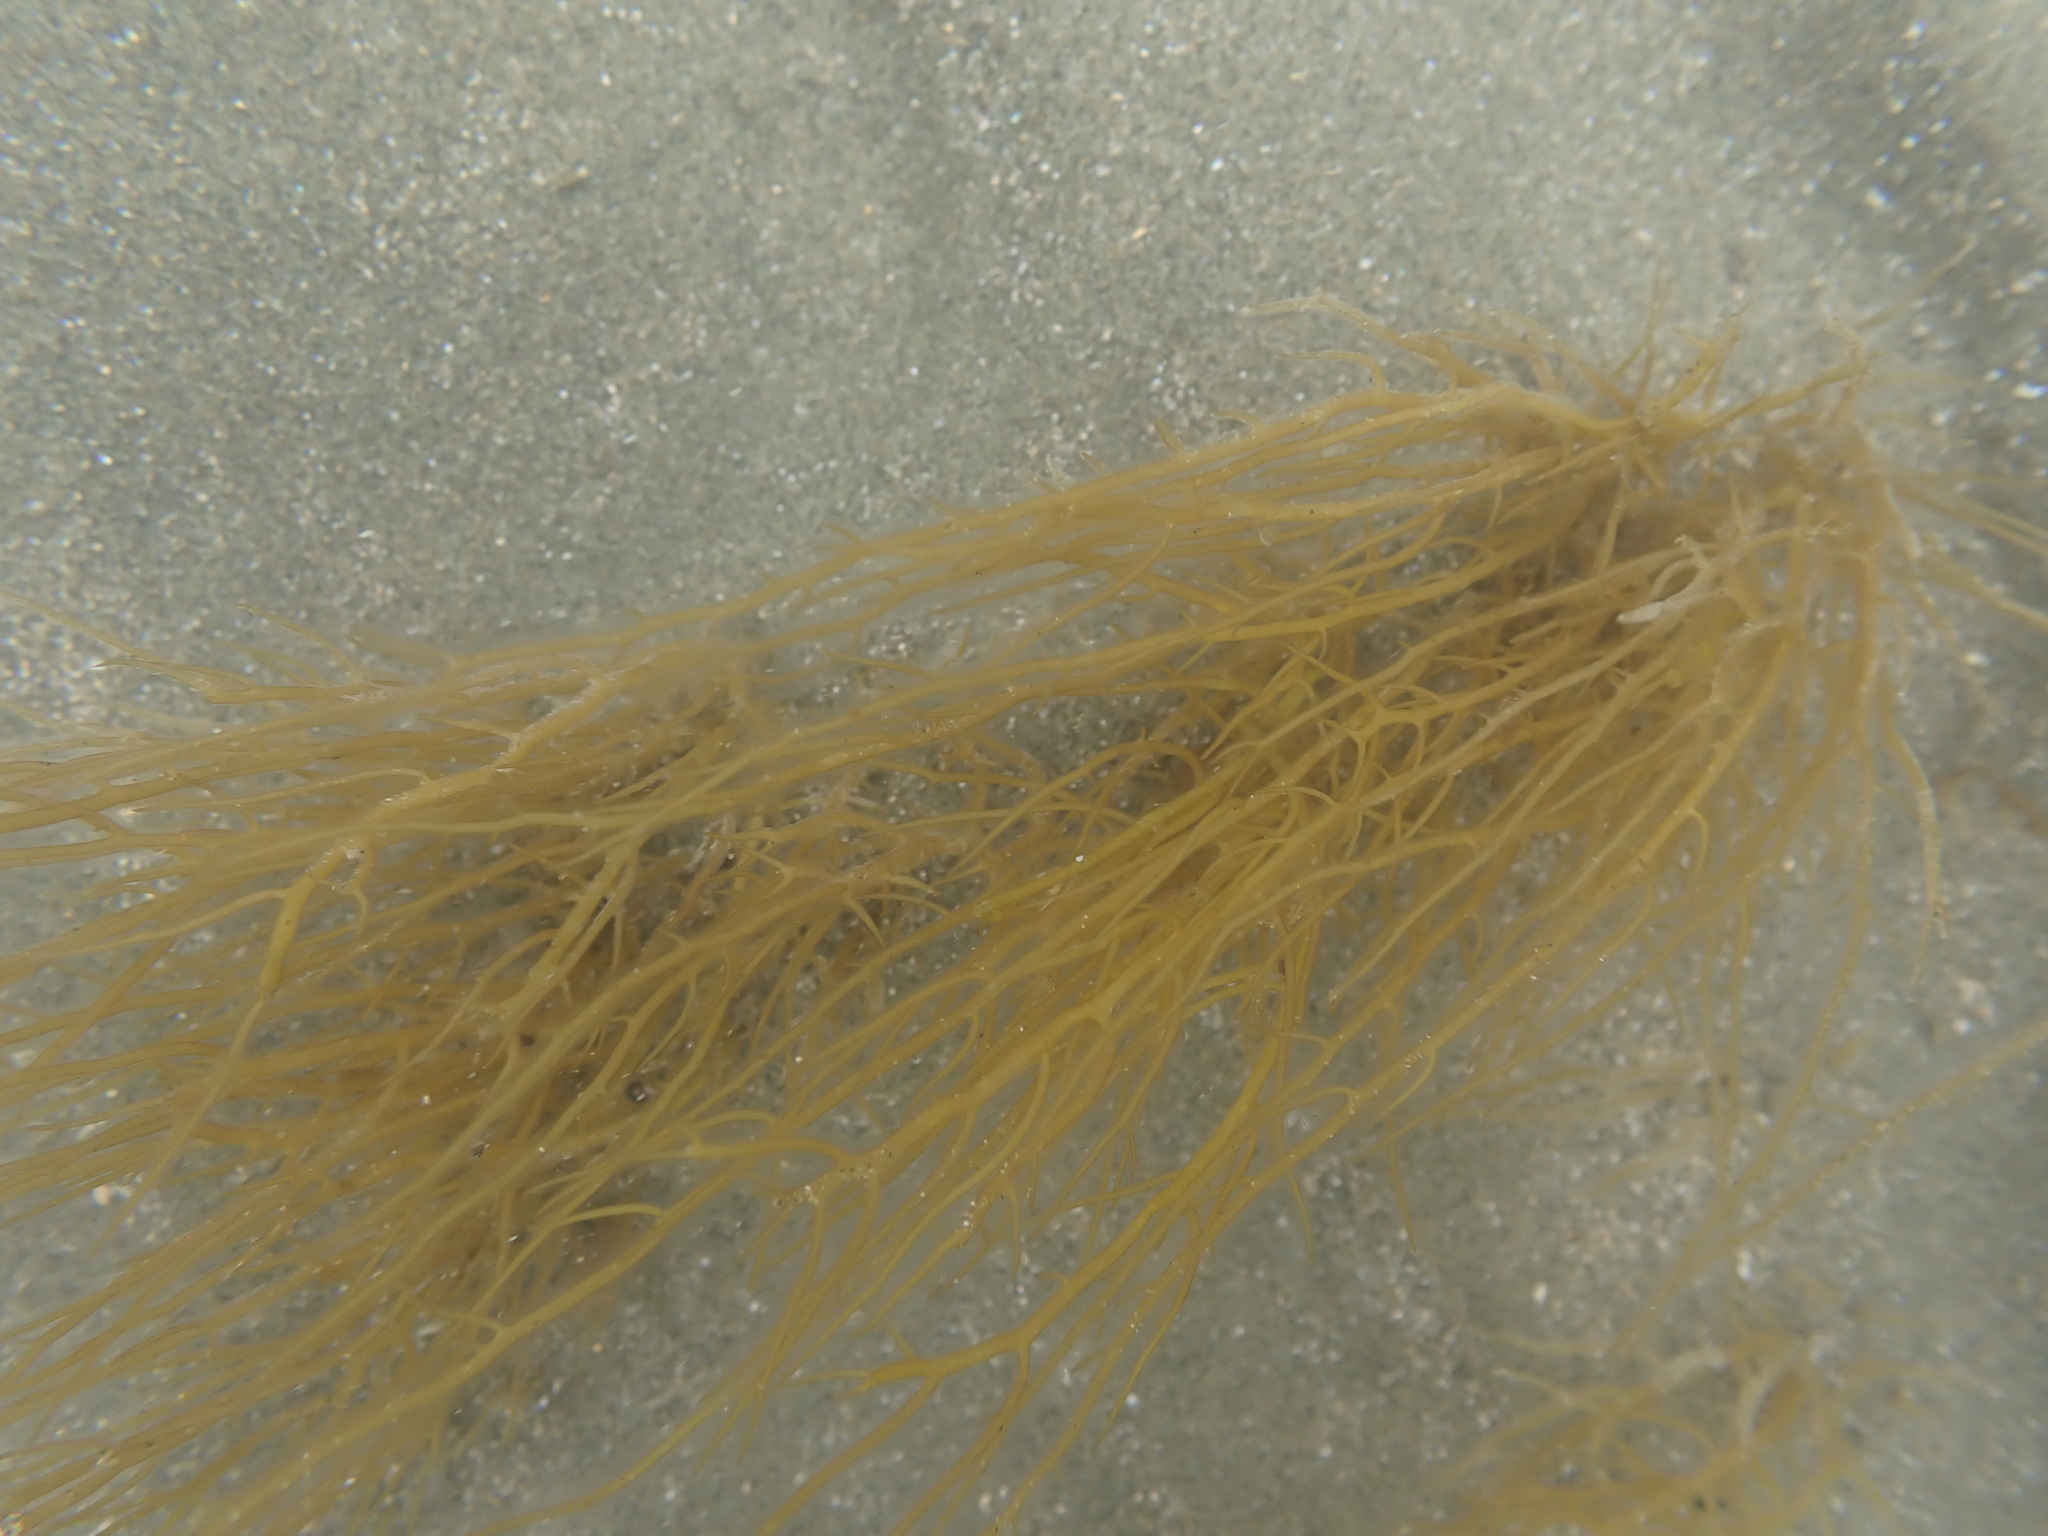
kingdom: Plantae
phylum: Rhodophyta
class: Florideophyceae
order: Gracilariales
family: Gracilariaceae
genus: Gracilaria
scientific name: Gracilaria chilensis
